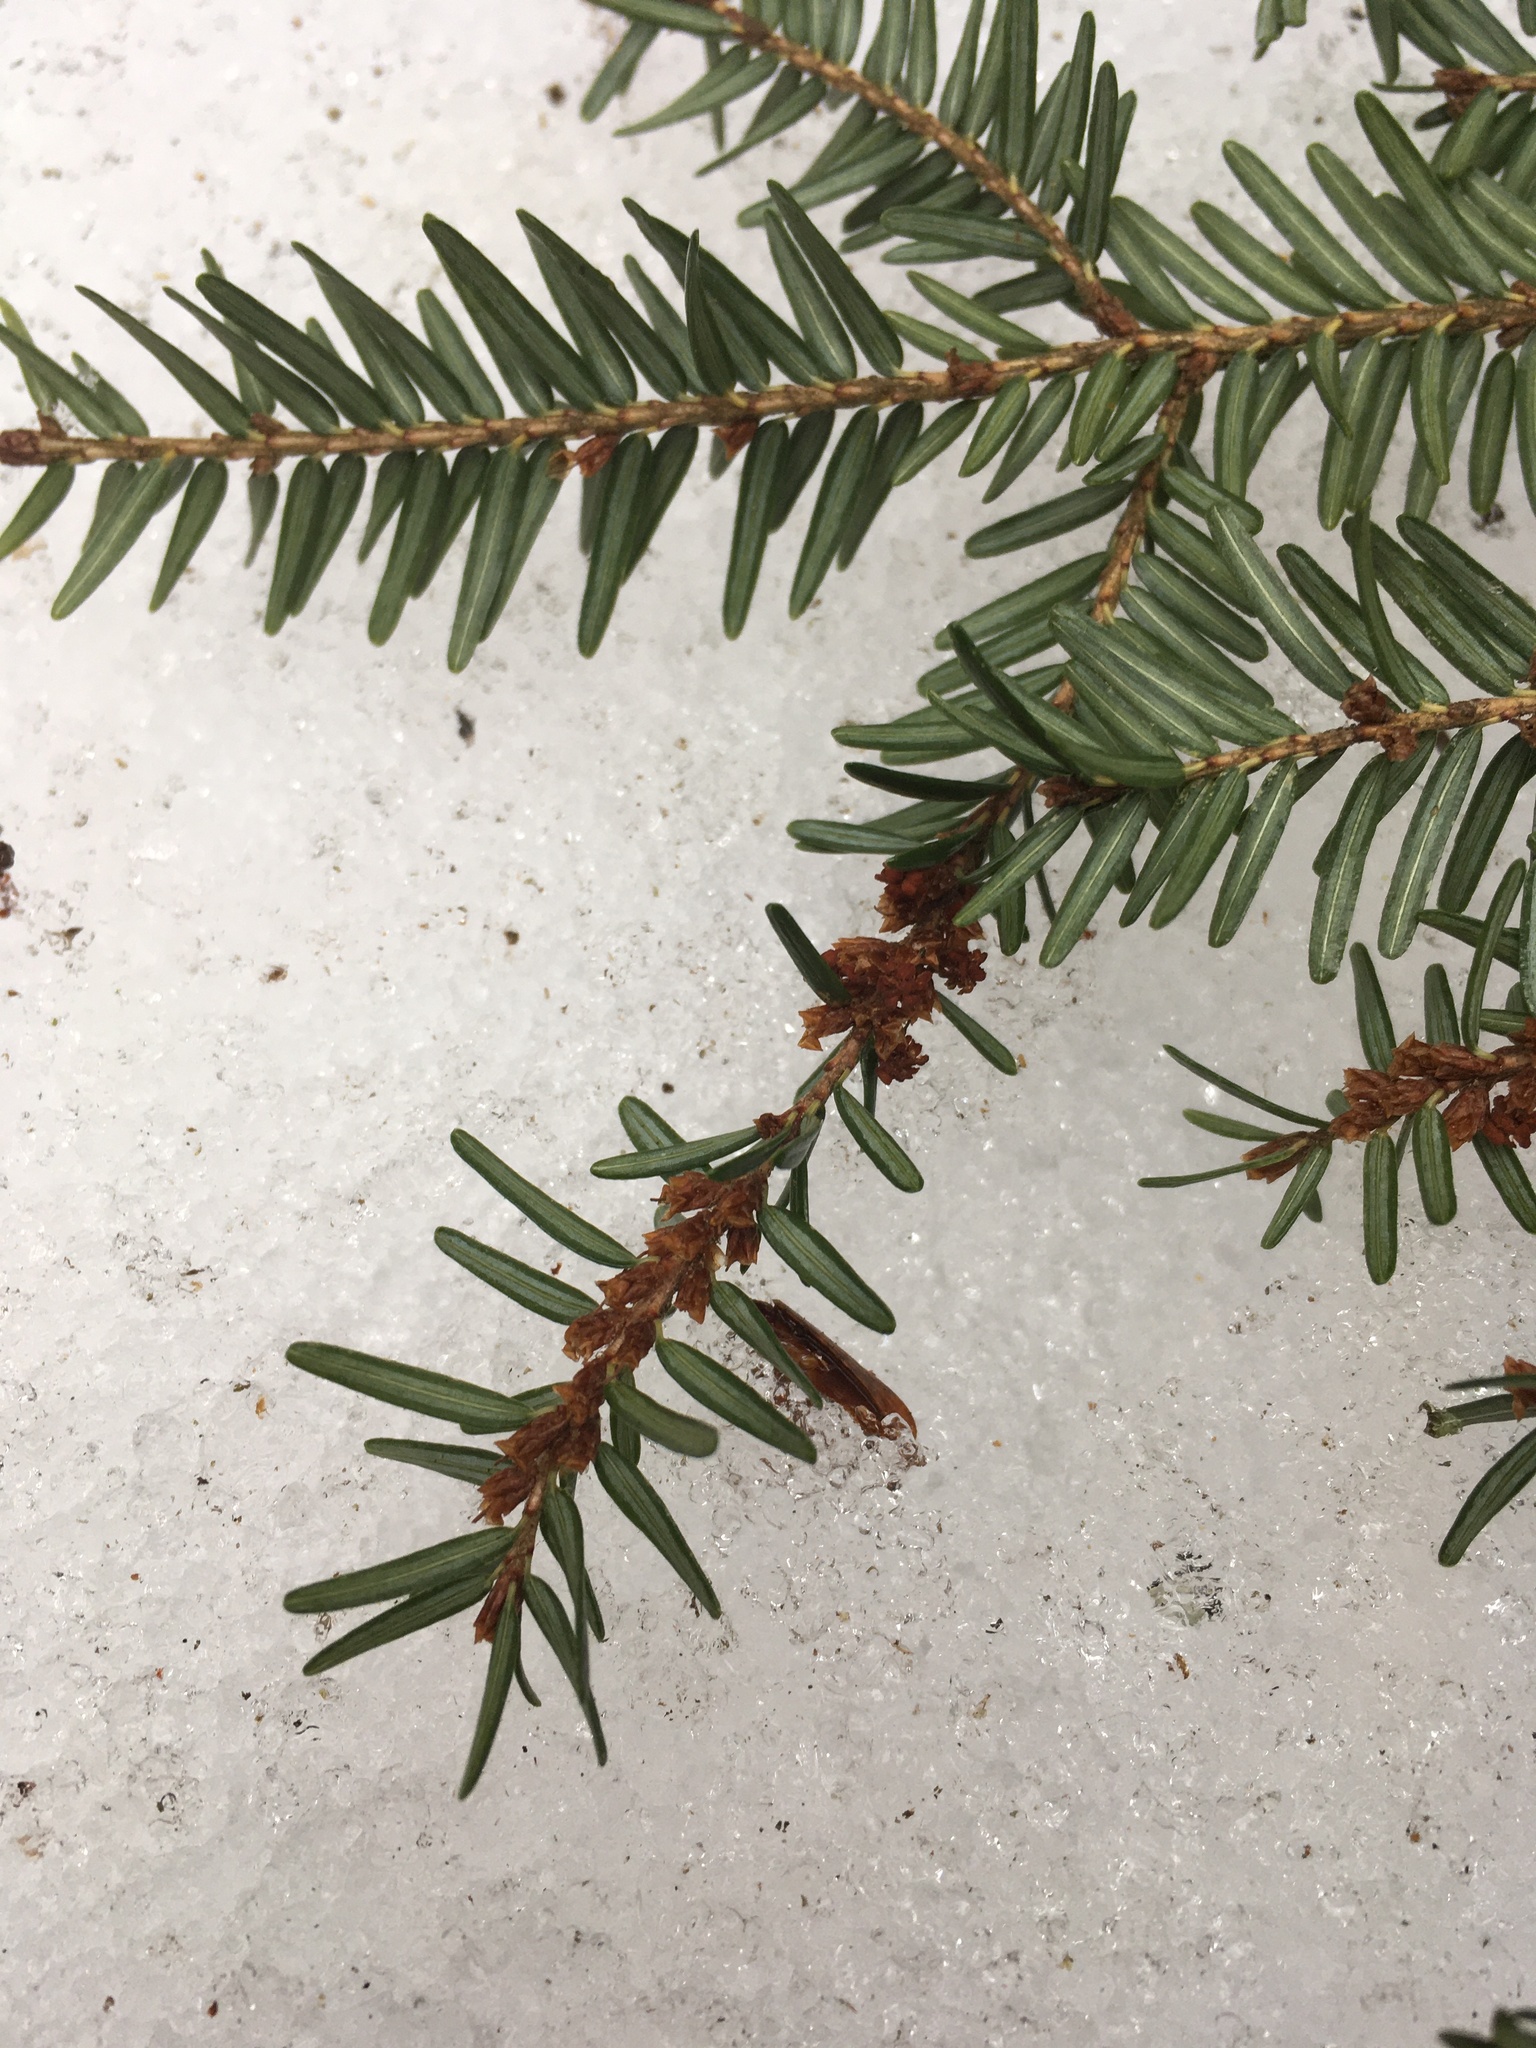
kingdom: Plantae
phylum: Tracheophyta
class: Pinopsida
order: Pinales
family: Pinaceae
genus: Tsuga
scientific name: Tsuga canadensis
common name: Eastern hemlock
